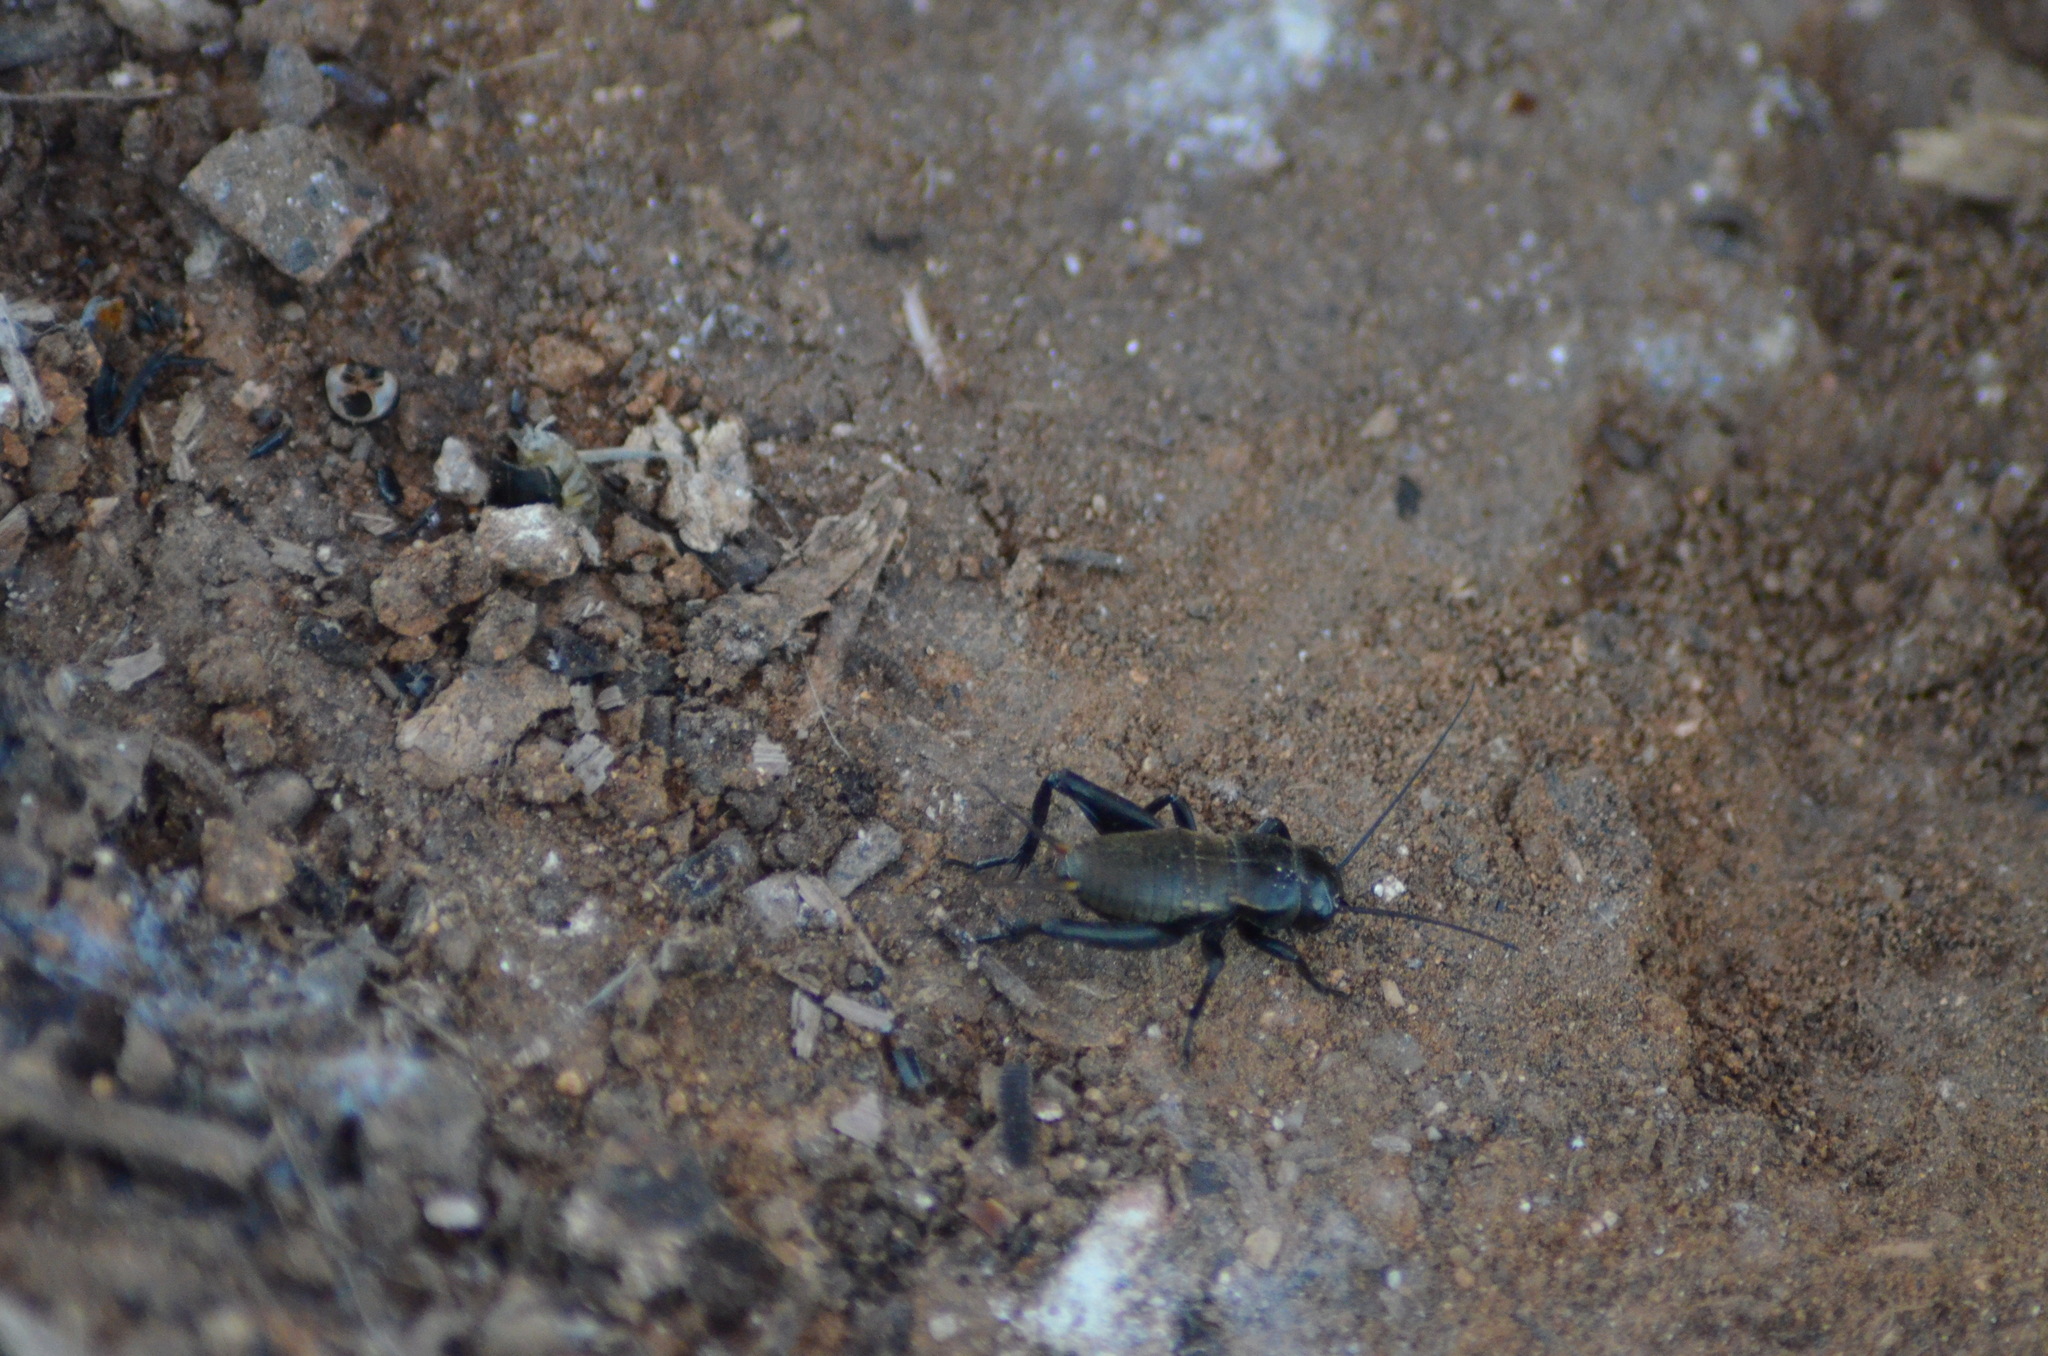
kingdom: Animalia
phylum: Arthropoda
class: Insecta
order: Orthoptera
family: Gryllidae
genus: Gryllus
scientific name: Gryllus bimaculatus
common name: Two-spotted cricket
